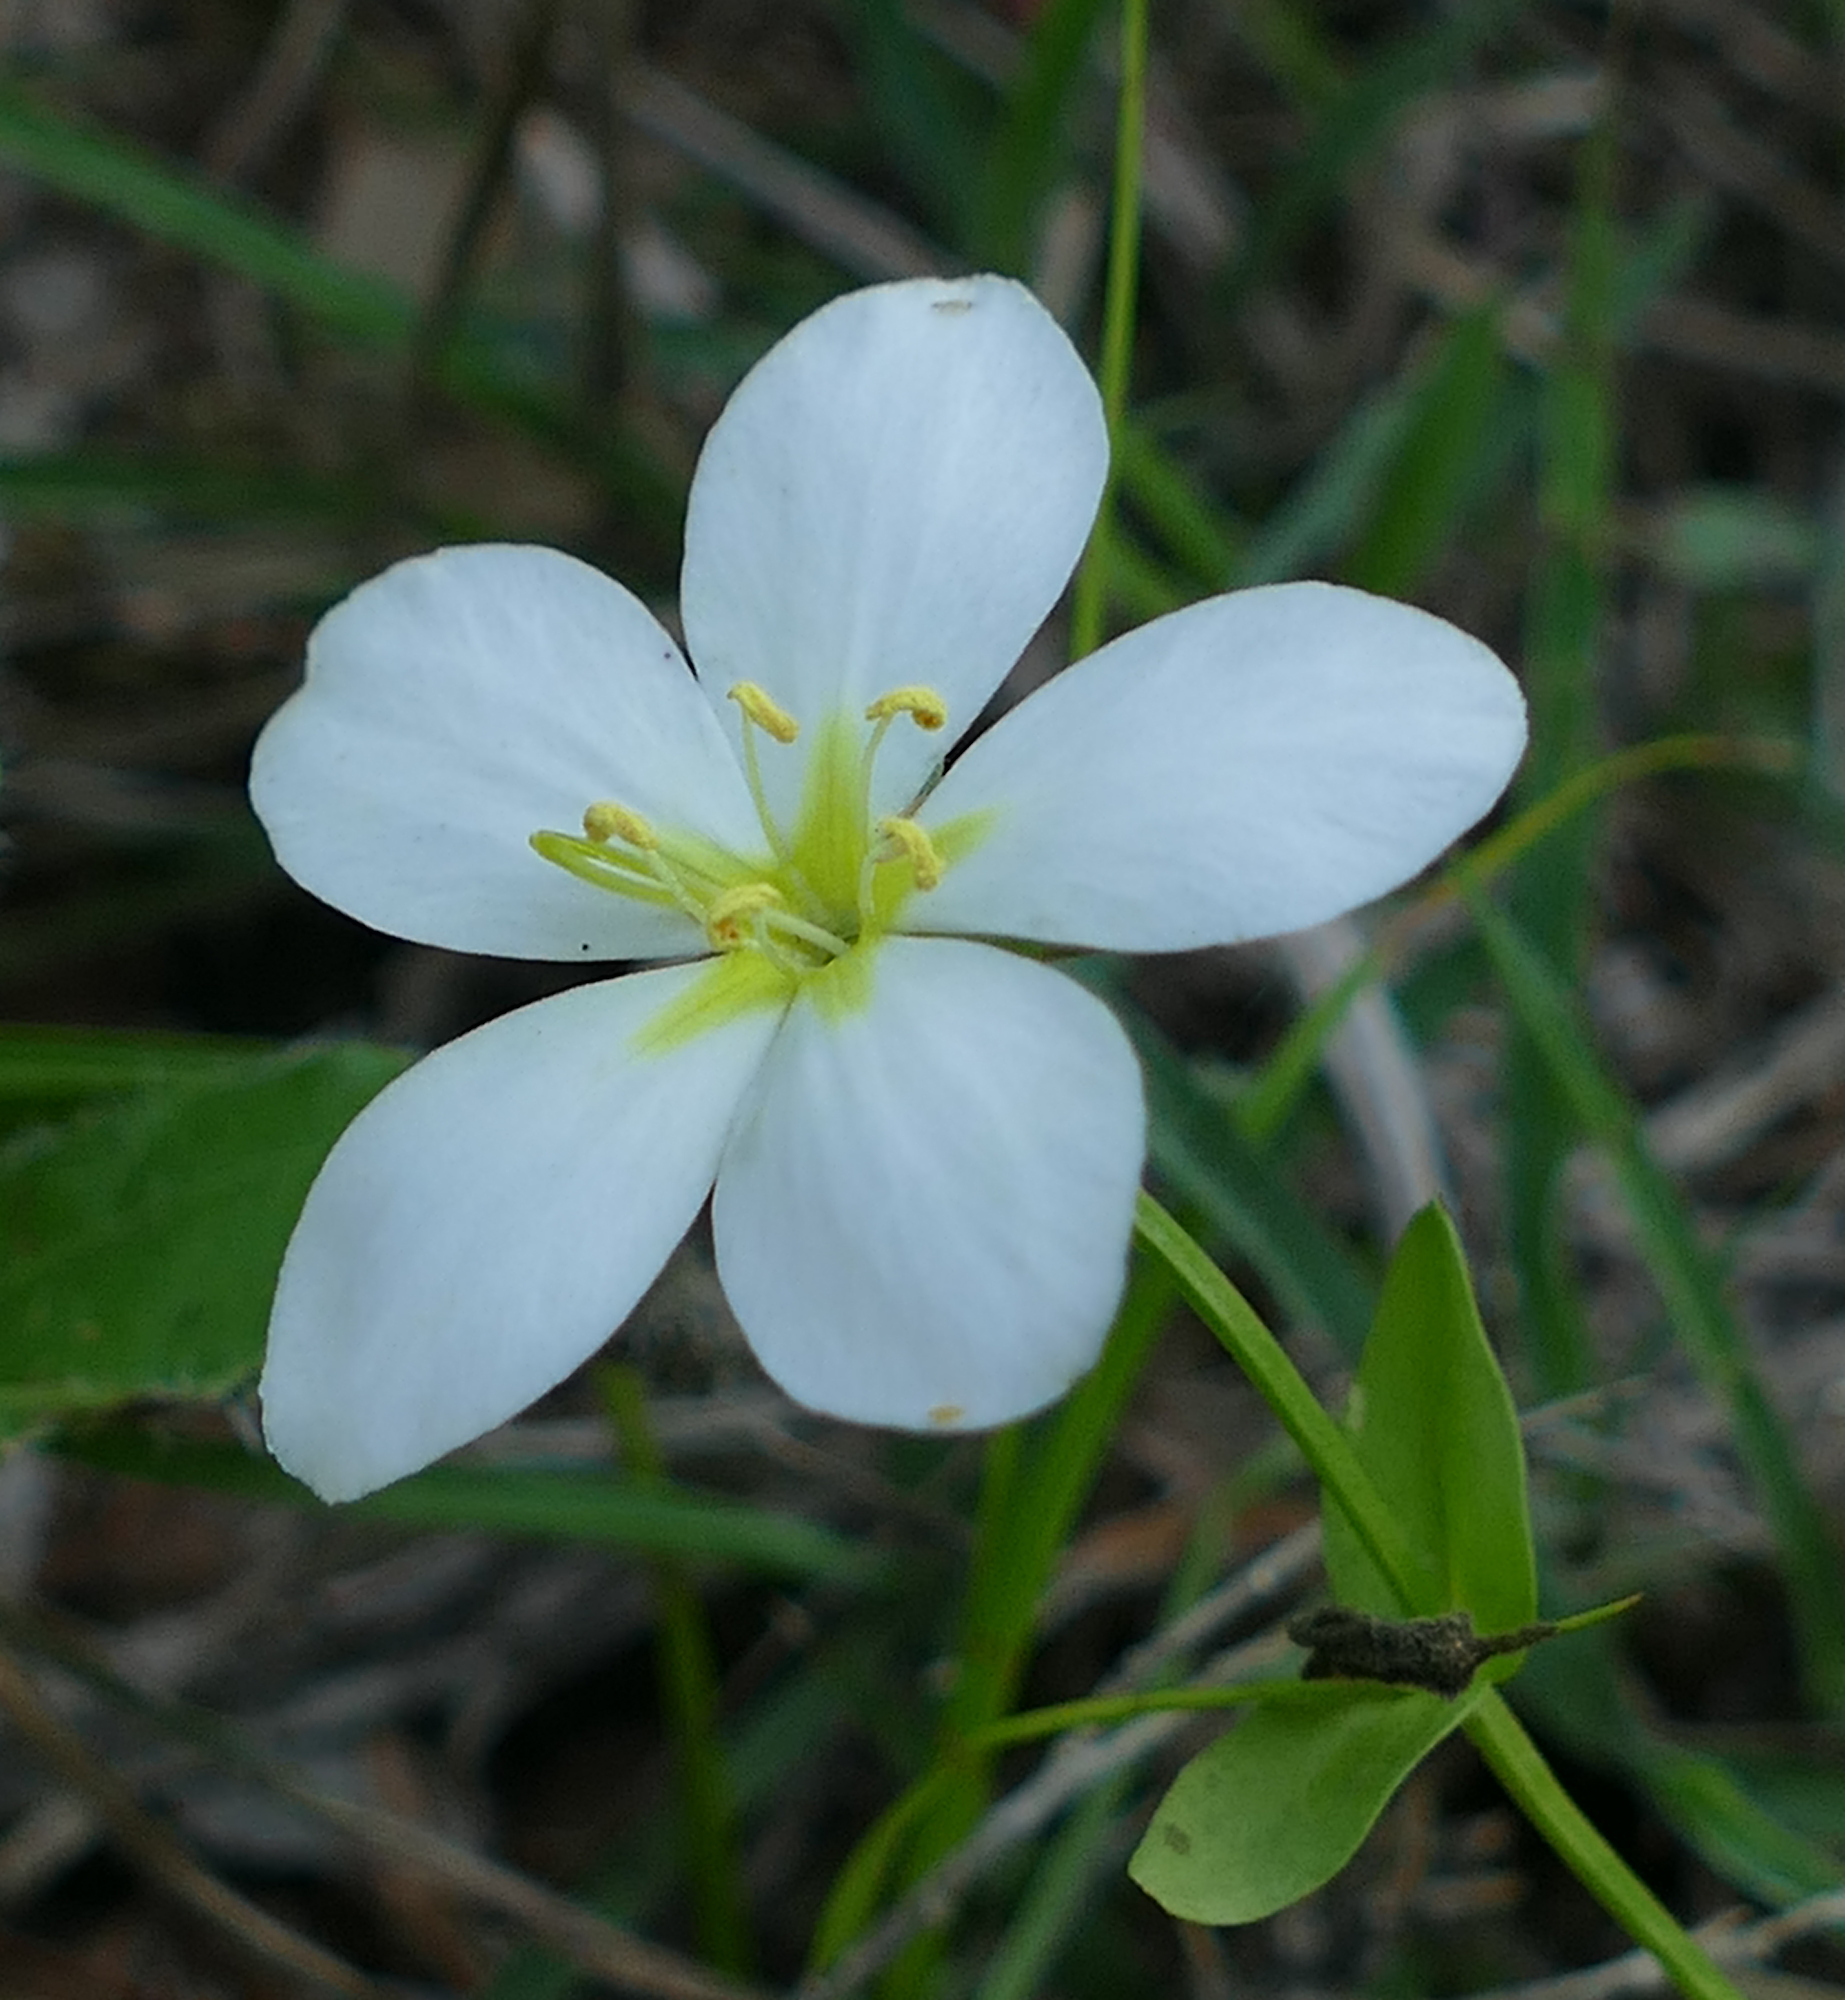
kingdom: Plantae
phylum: Tracheophyta
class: Magnoliopsida
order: Gentianales
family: Gentianaceae
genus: Sabatia
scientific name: Sabatia campestris
